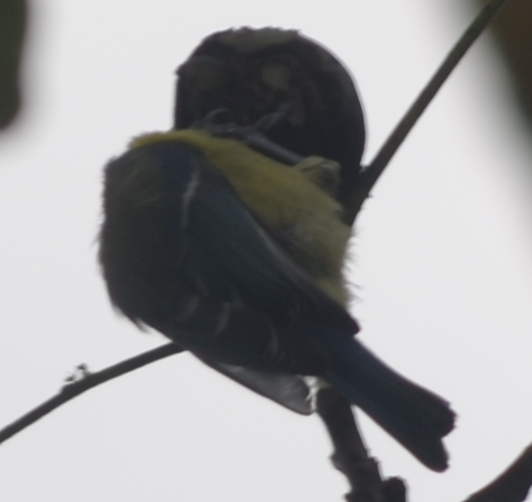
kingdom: Animalia
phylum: Chordata
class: Aves
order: Passeriformes
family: Paridae
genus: Cyanistes
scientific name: Cyanistes caeruleus
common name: Eurasian blue tit
